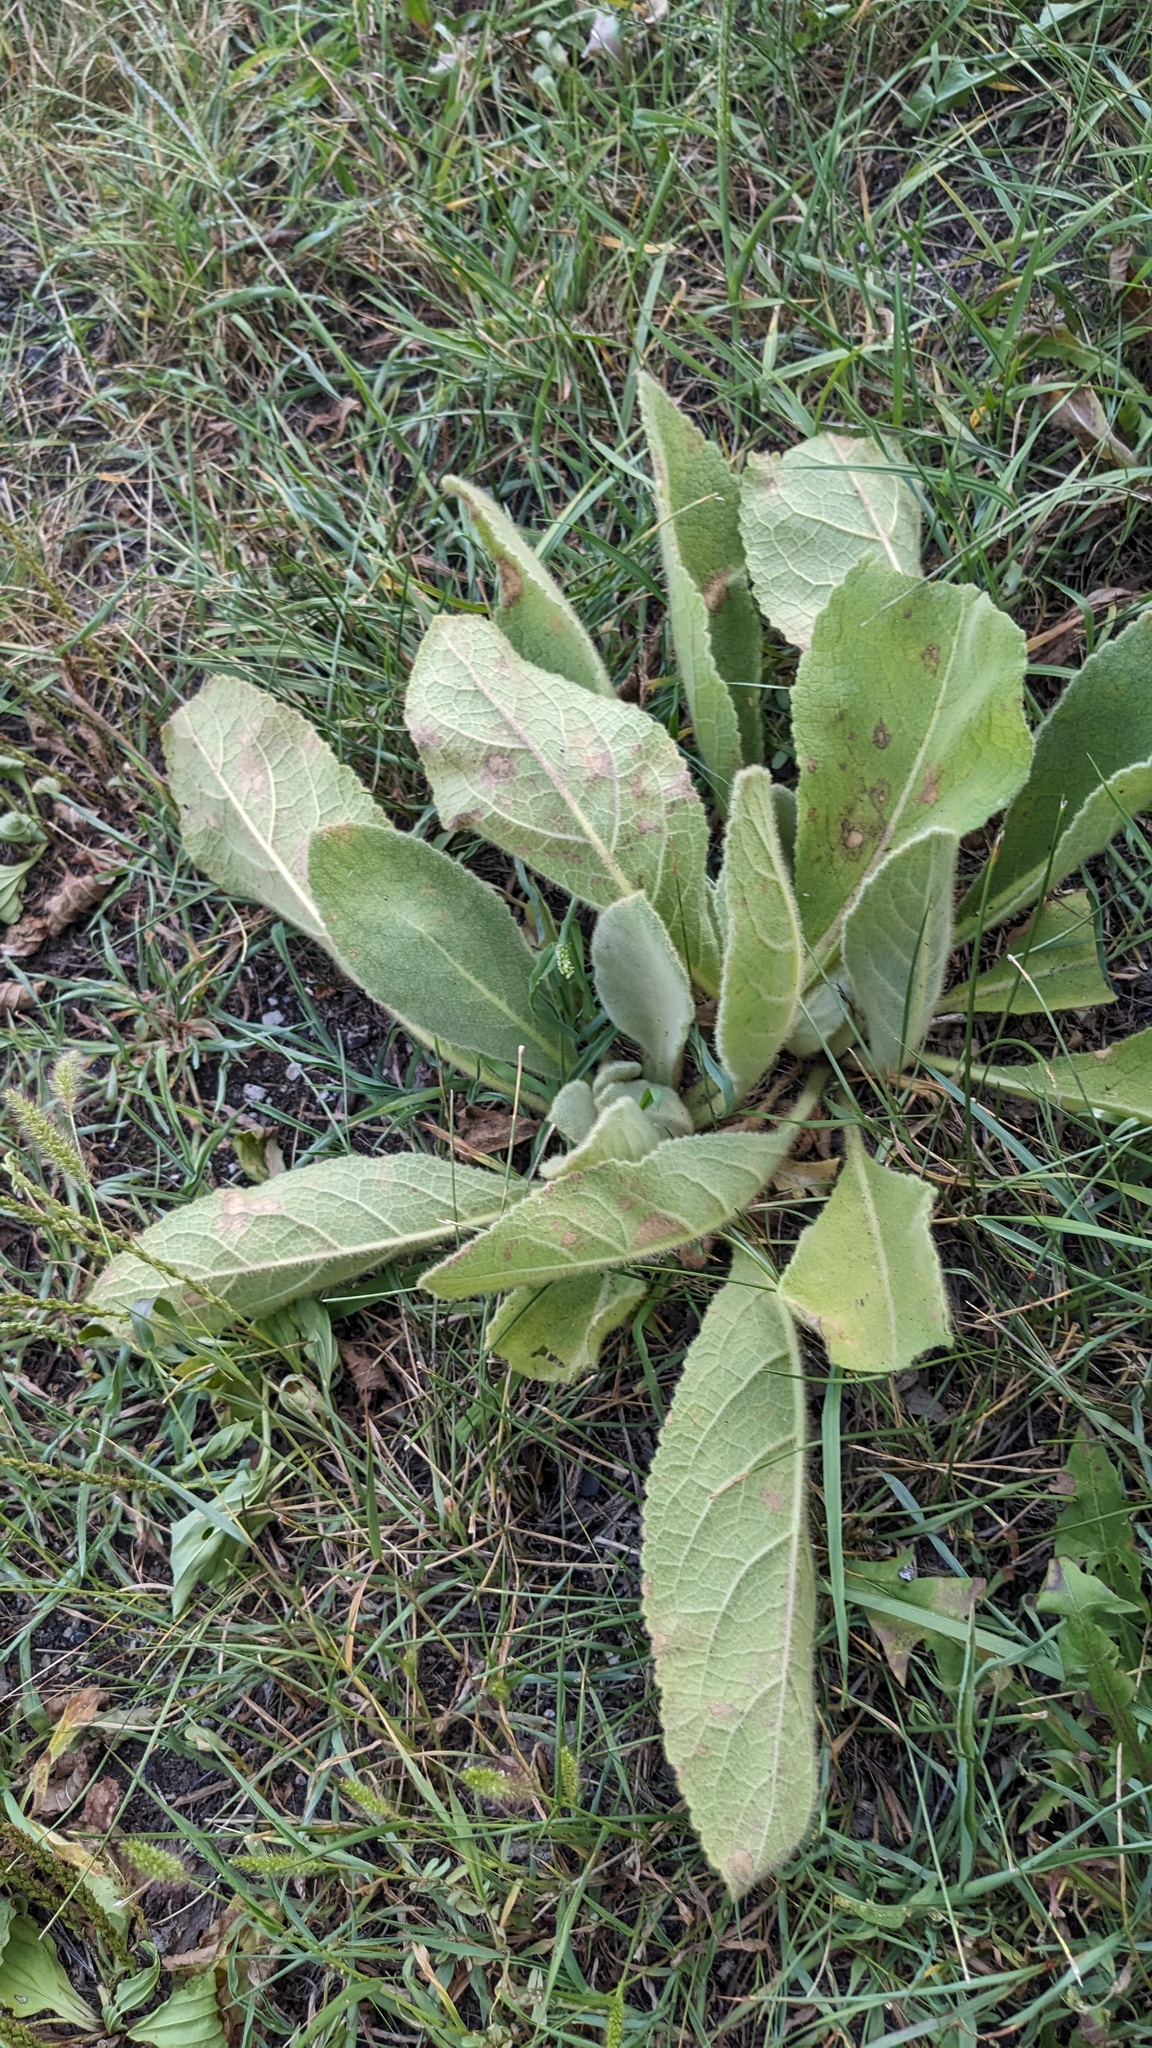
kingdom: Plantae
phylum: Tracheophyta
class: Magnoliopsida
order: Lamiales
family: Scrophulariaceae
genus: Verbascum
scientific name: Verbascum thapsus
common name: Common mullein
